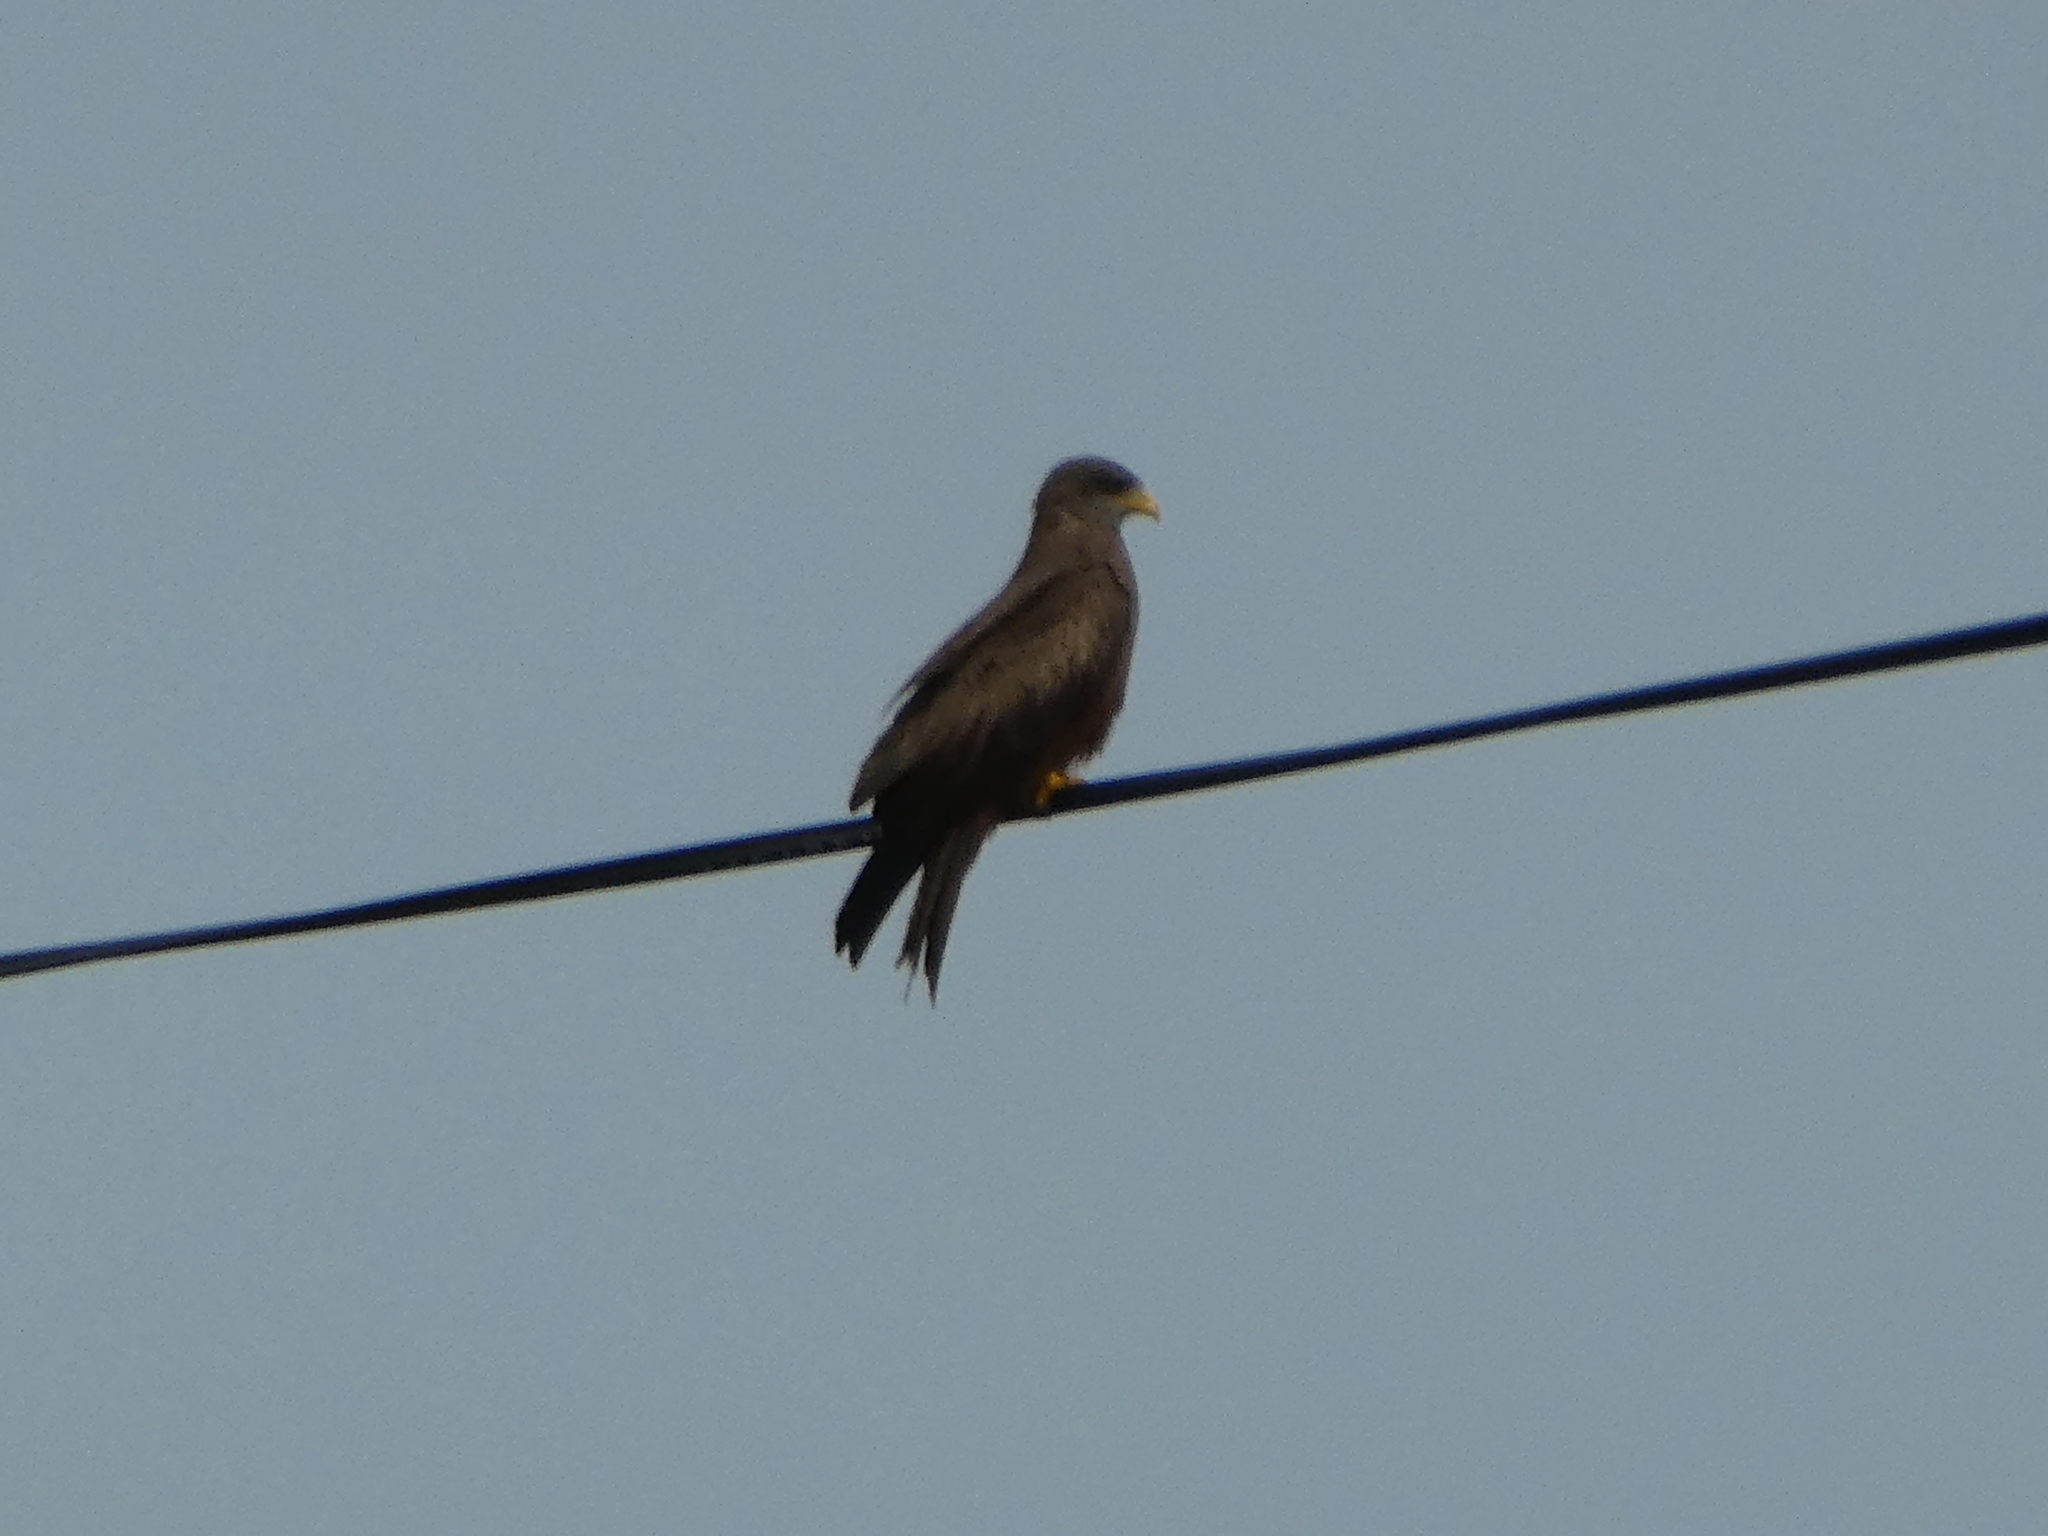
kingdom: Animalia
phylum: Chordata
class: Aves
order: Accipitriformes
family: Accipitridae
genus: Milvus
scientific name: Milvus migrans
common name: Black kite
